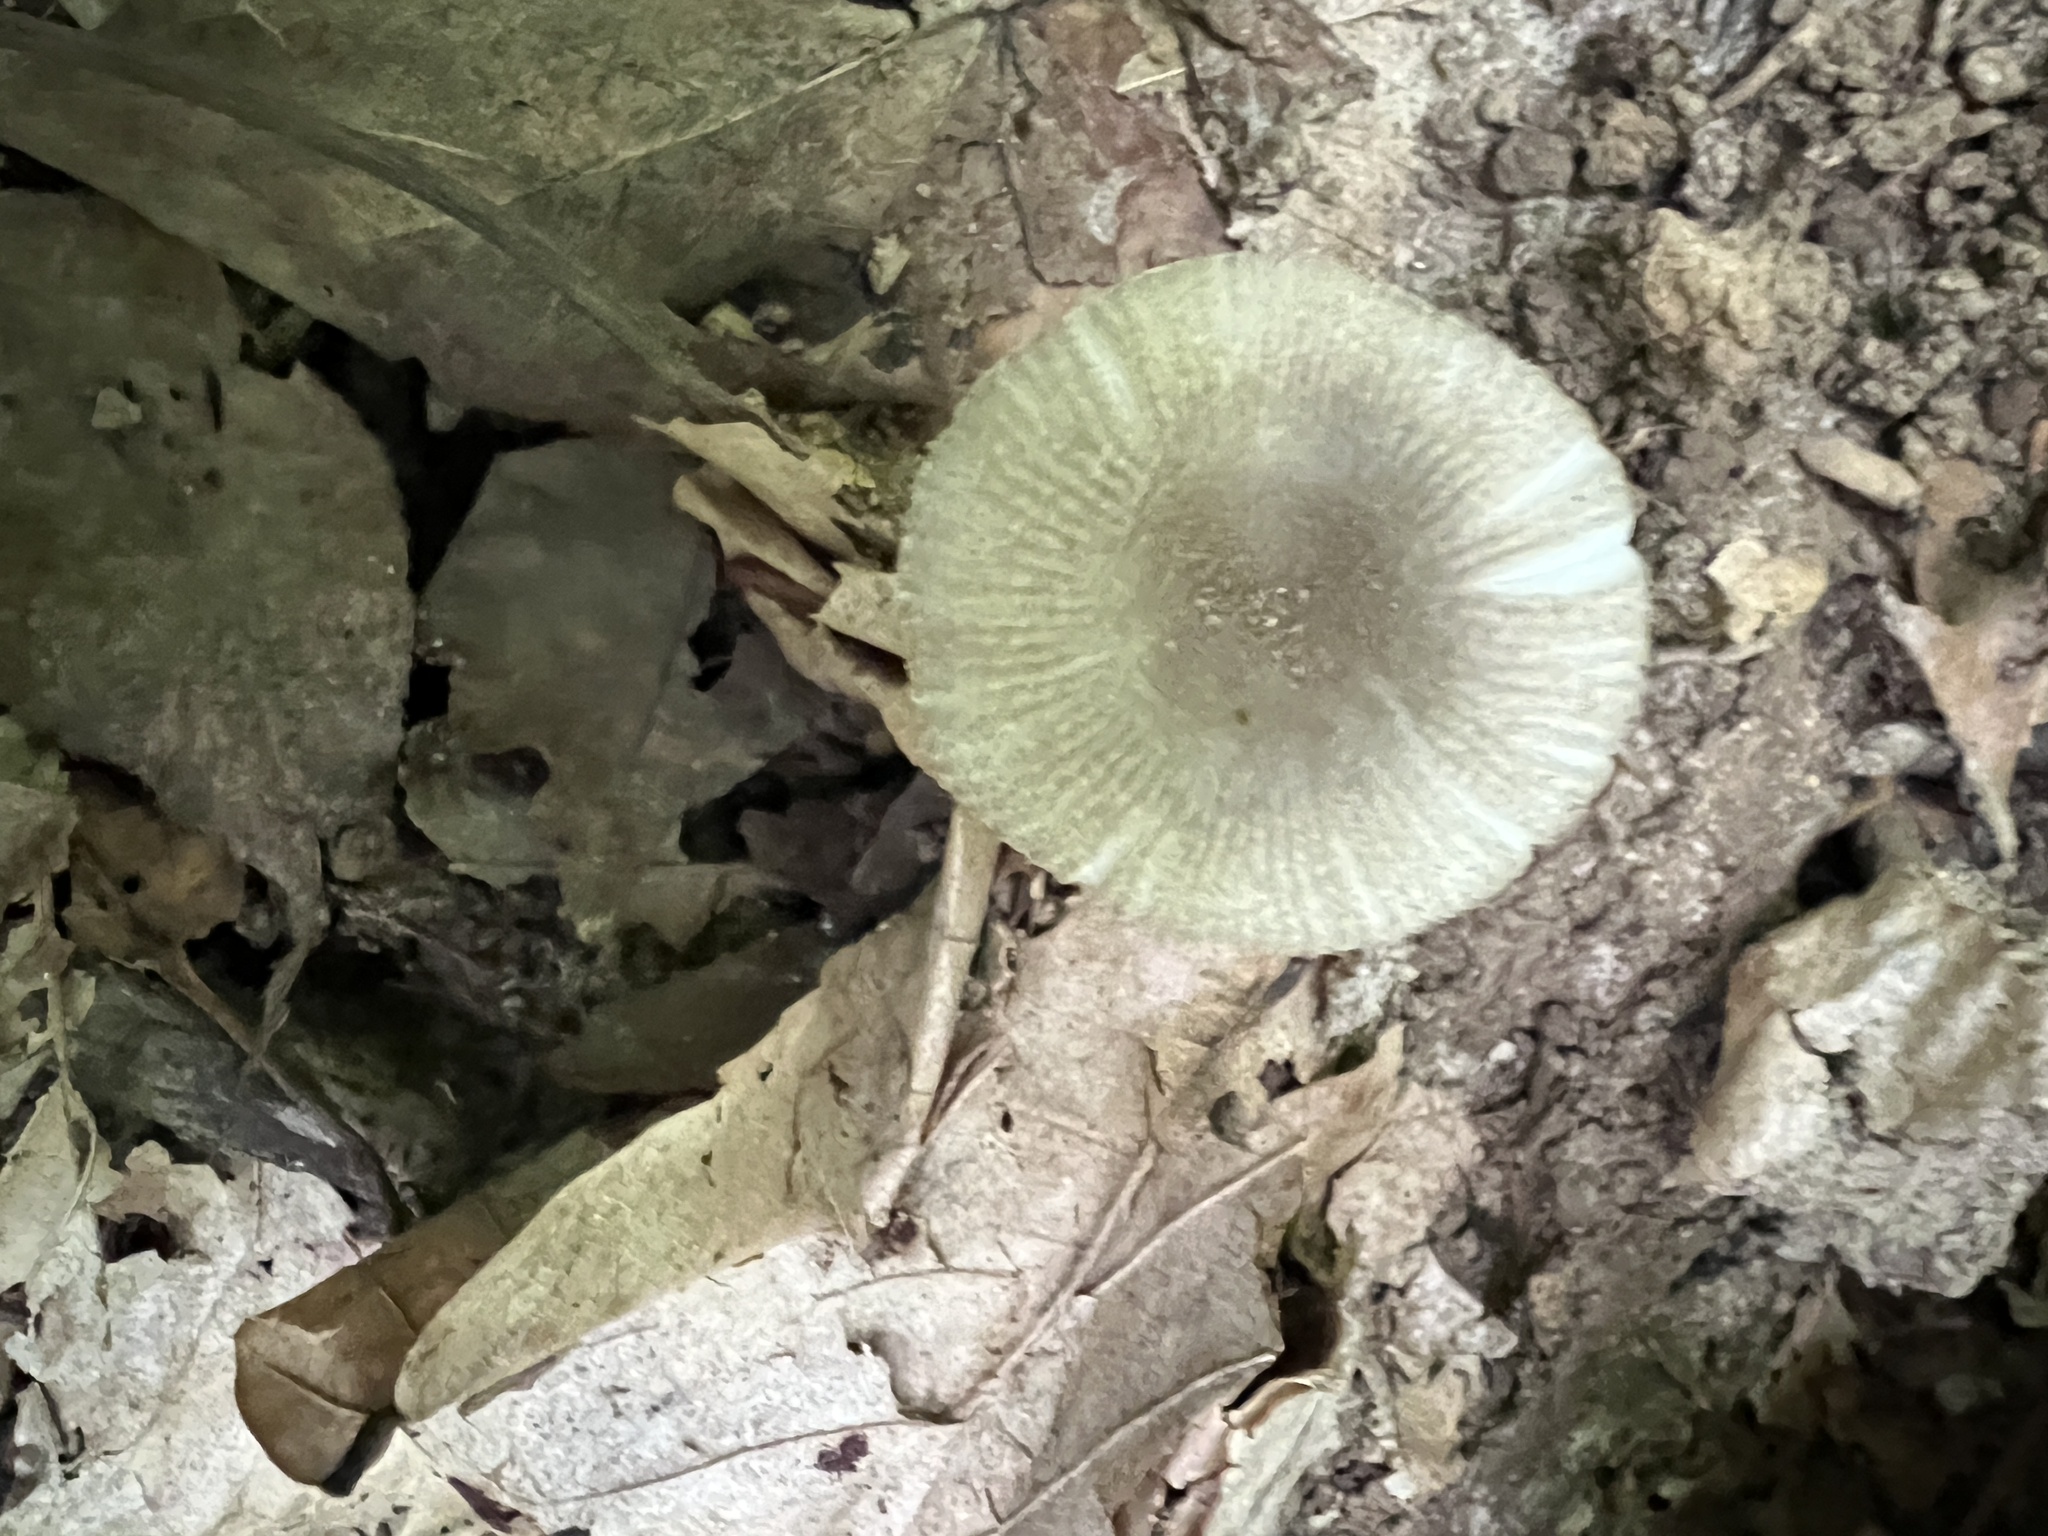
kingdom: Fungi
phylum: Basidiomycota
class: Agaricomycetes
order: Agaricales
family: Amanitaceae
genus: Amanita
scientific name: Amanita farinosa
